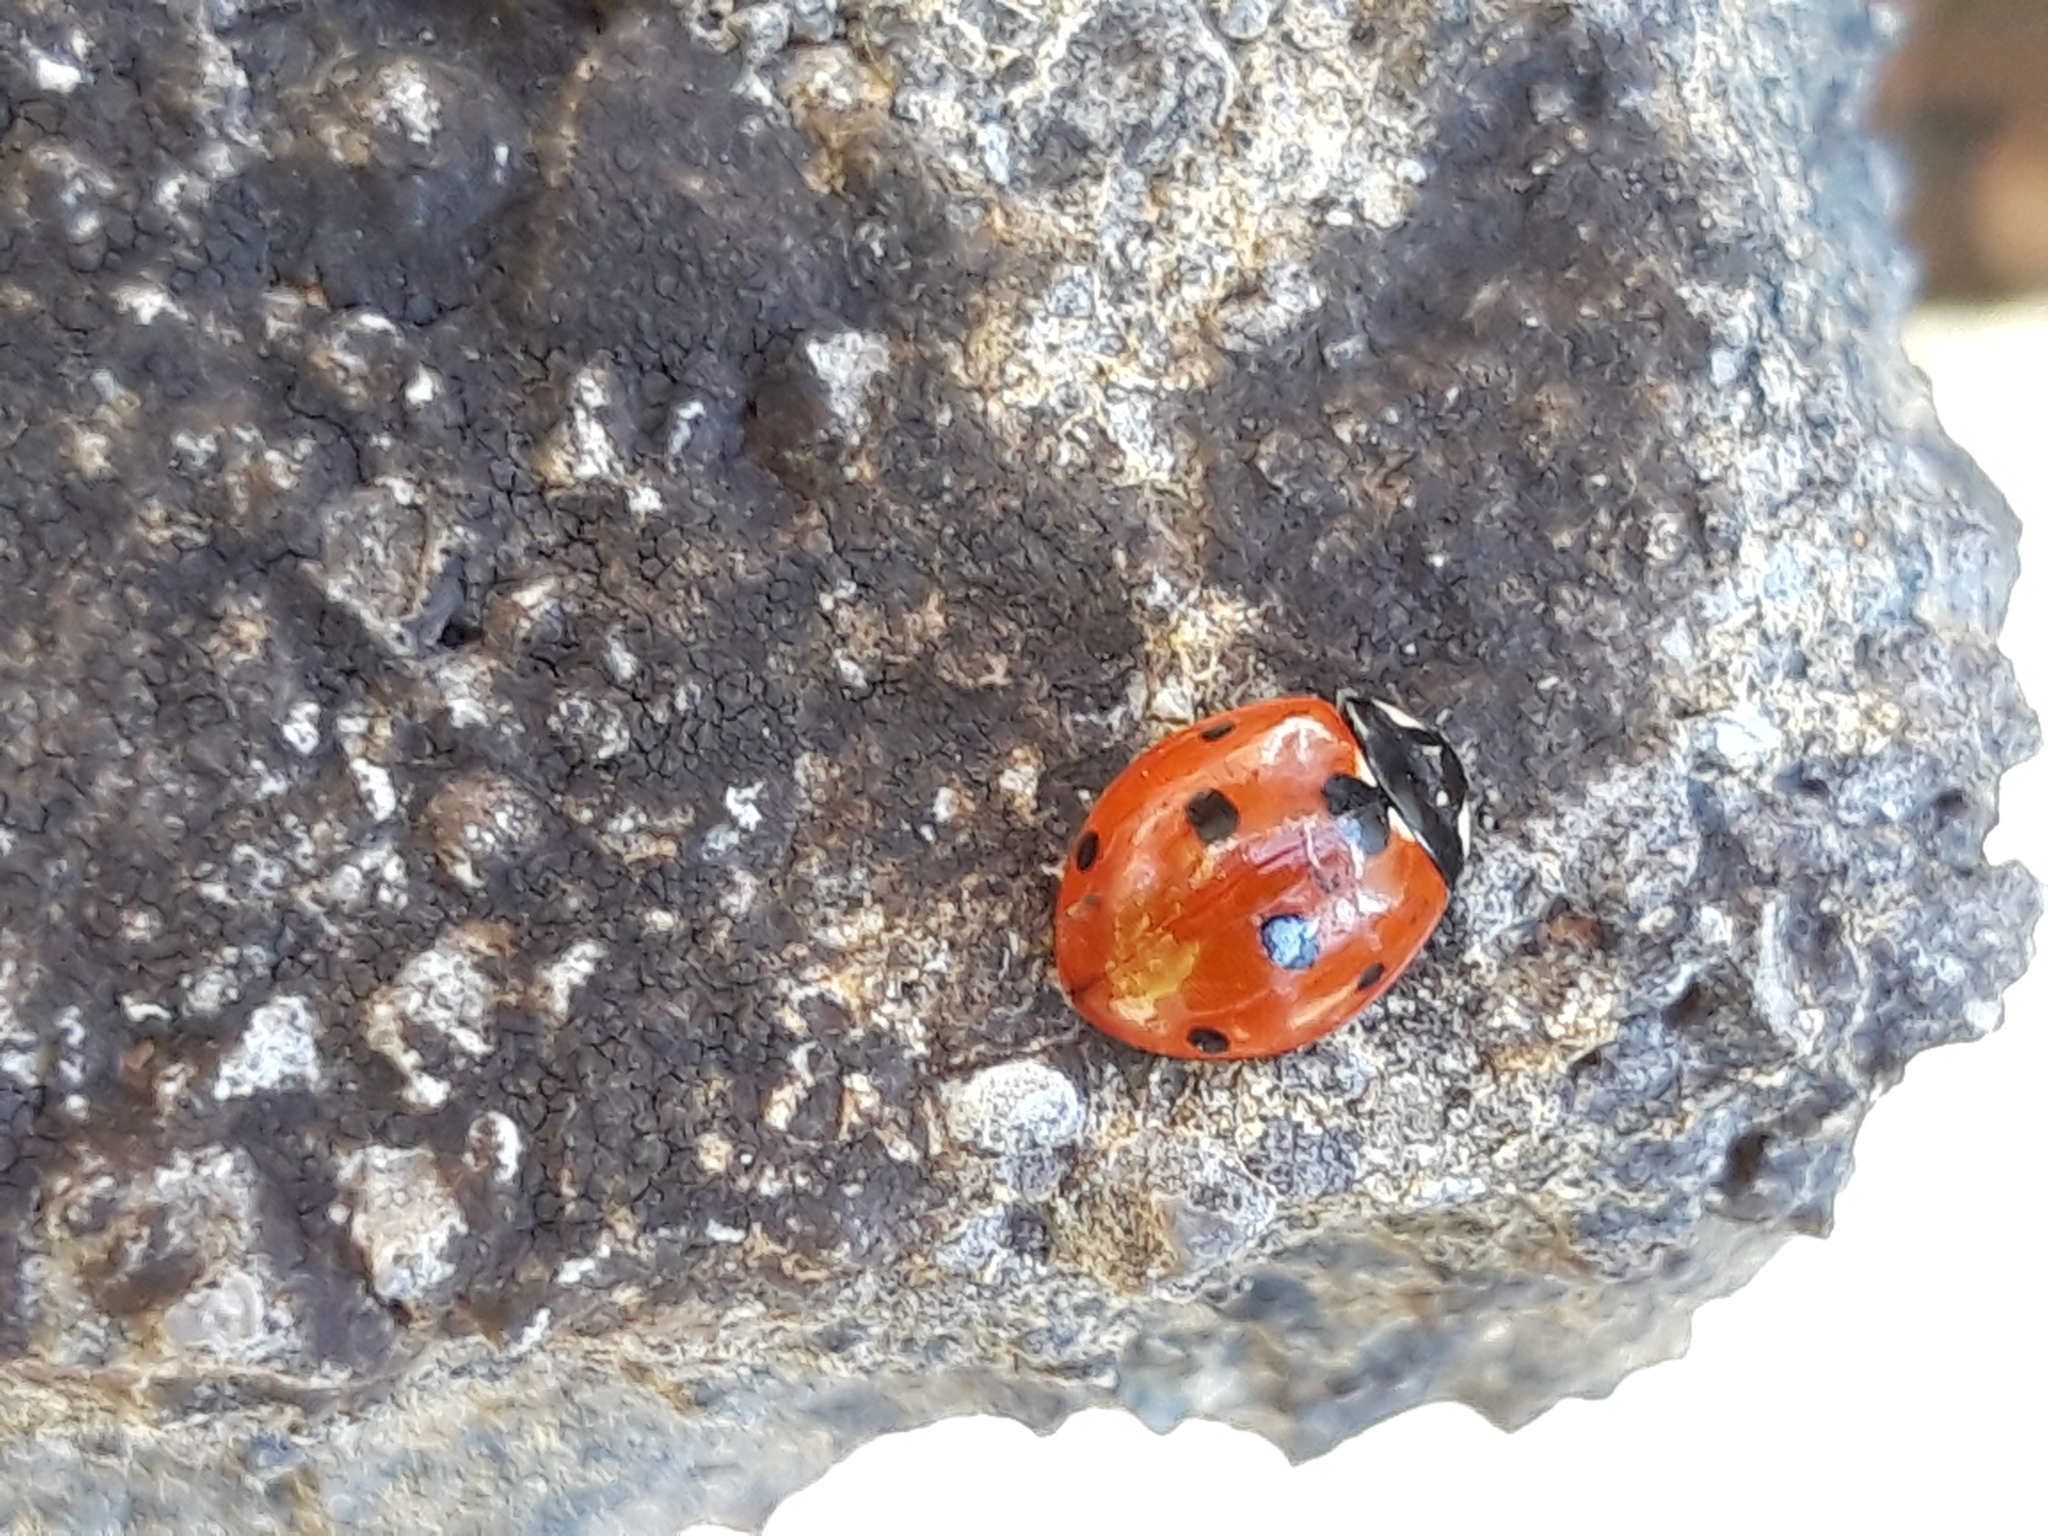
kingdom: Animalia
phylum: Arthropoda
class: Insecta
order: Coleoptera
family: Coccinellidae
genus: Coccinella
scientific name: Coccinella septempunctata
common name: Sevenspotted lady beetle
